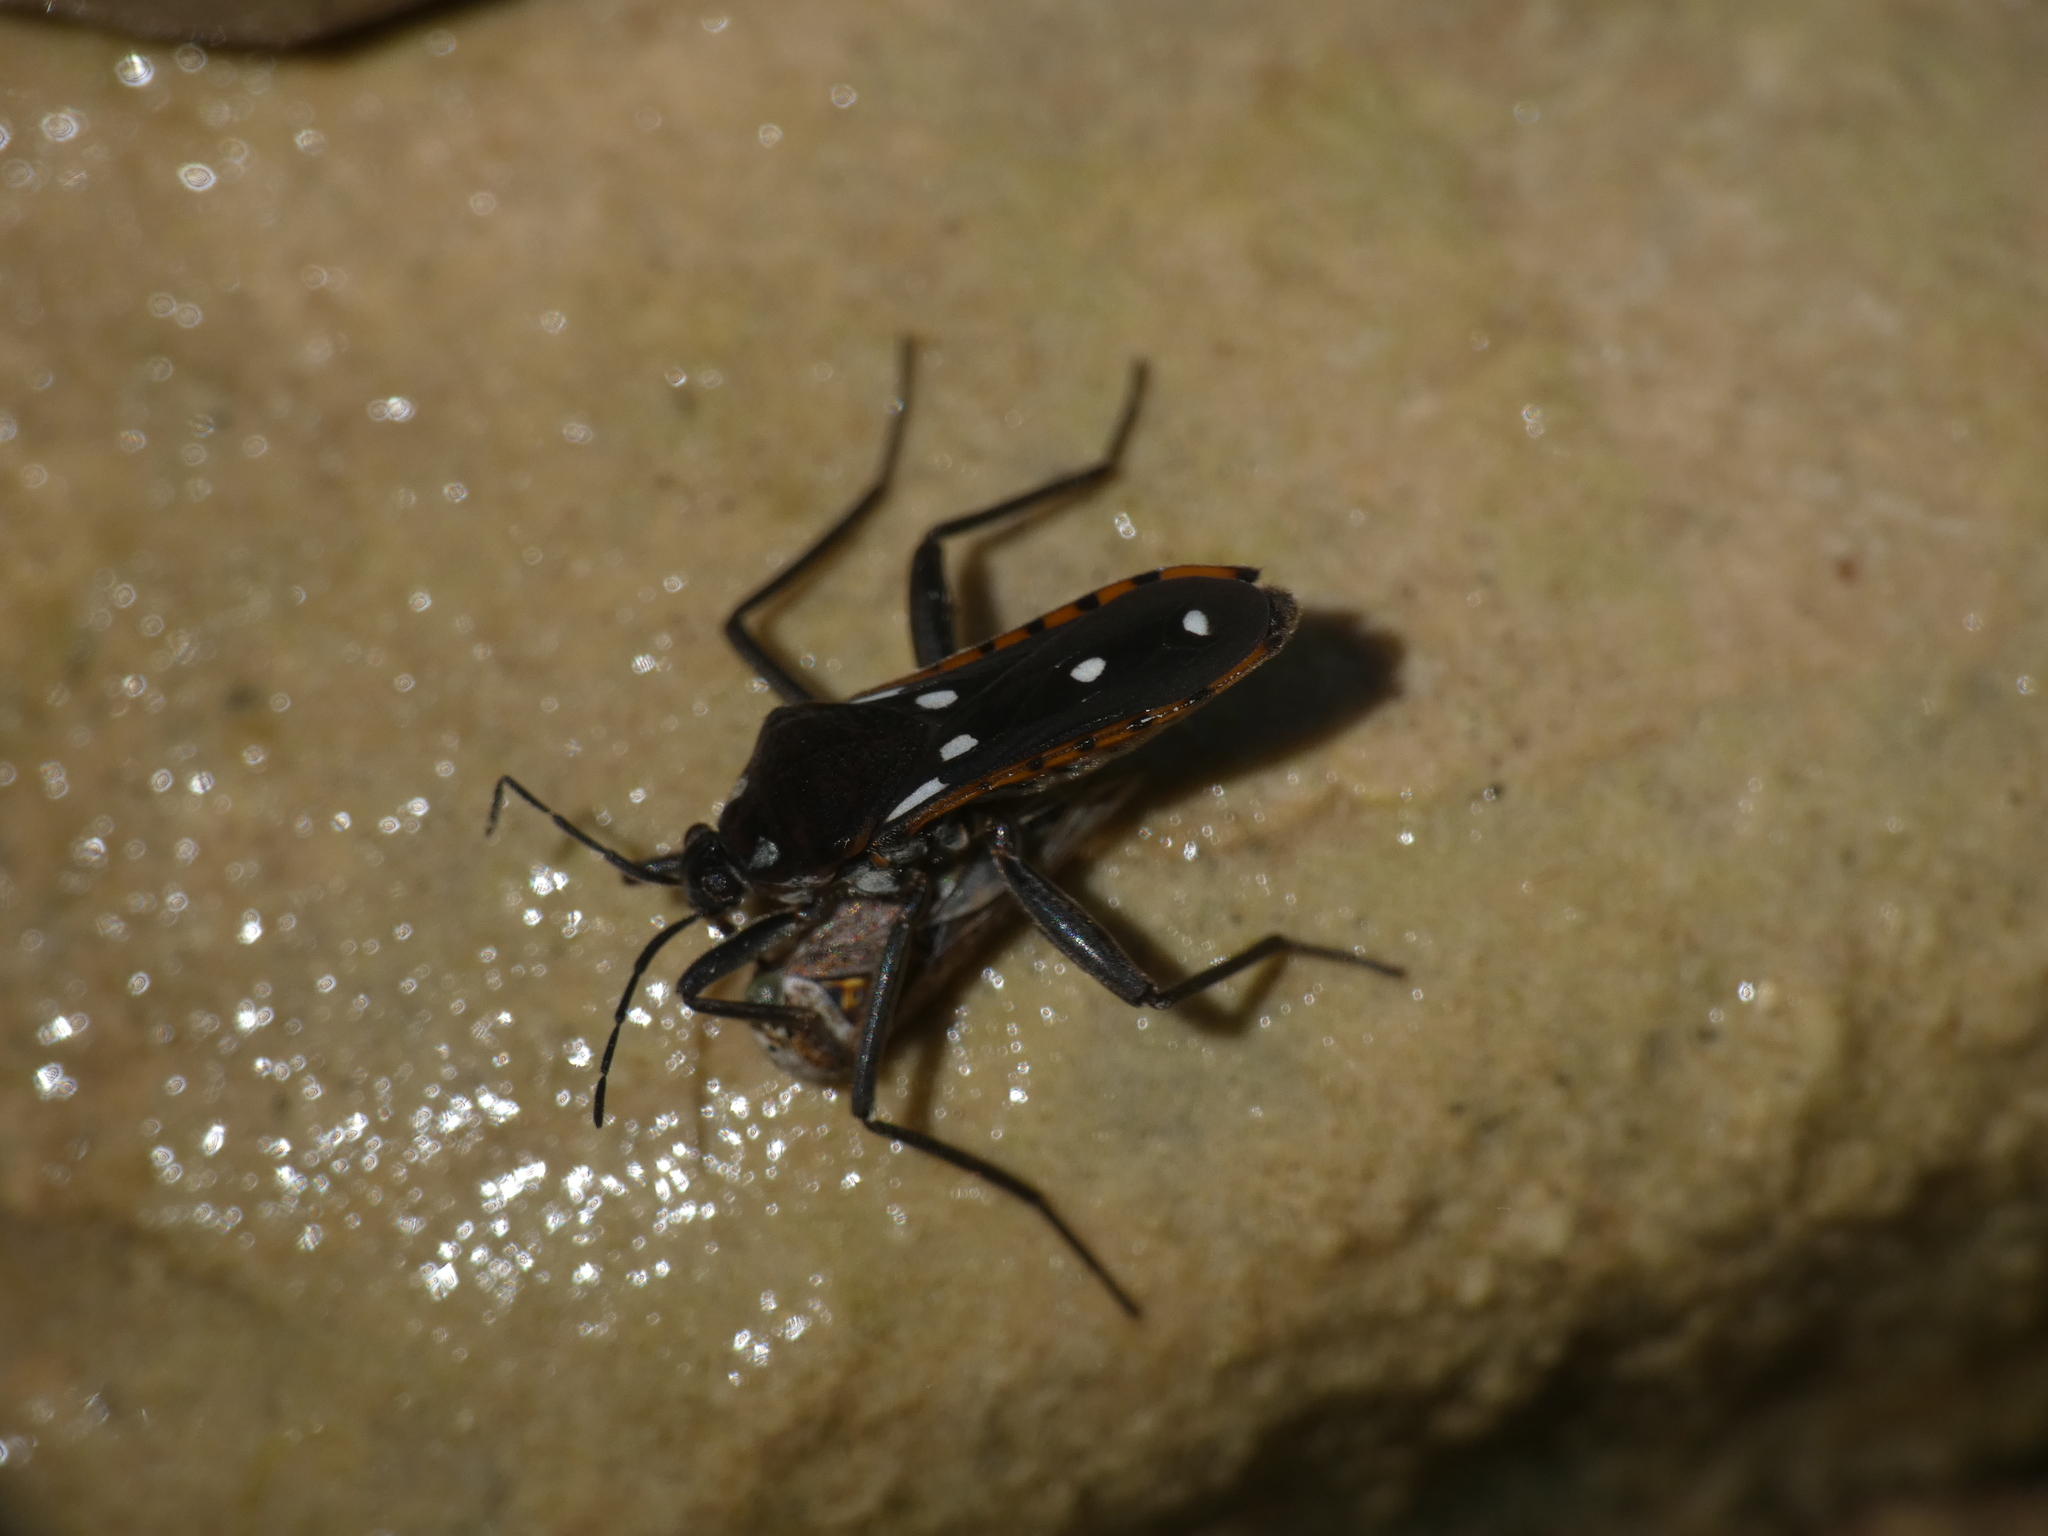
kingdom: Animalia
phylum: Arthropoda
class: Insecta
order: Hemiptera
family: Veliidae
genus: Velia
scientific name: Velia saulii
